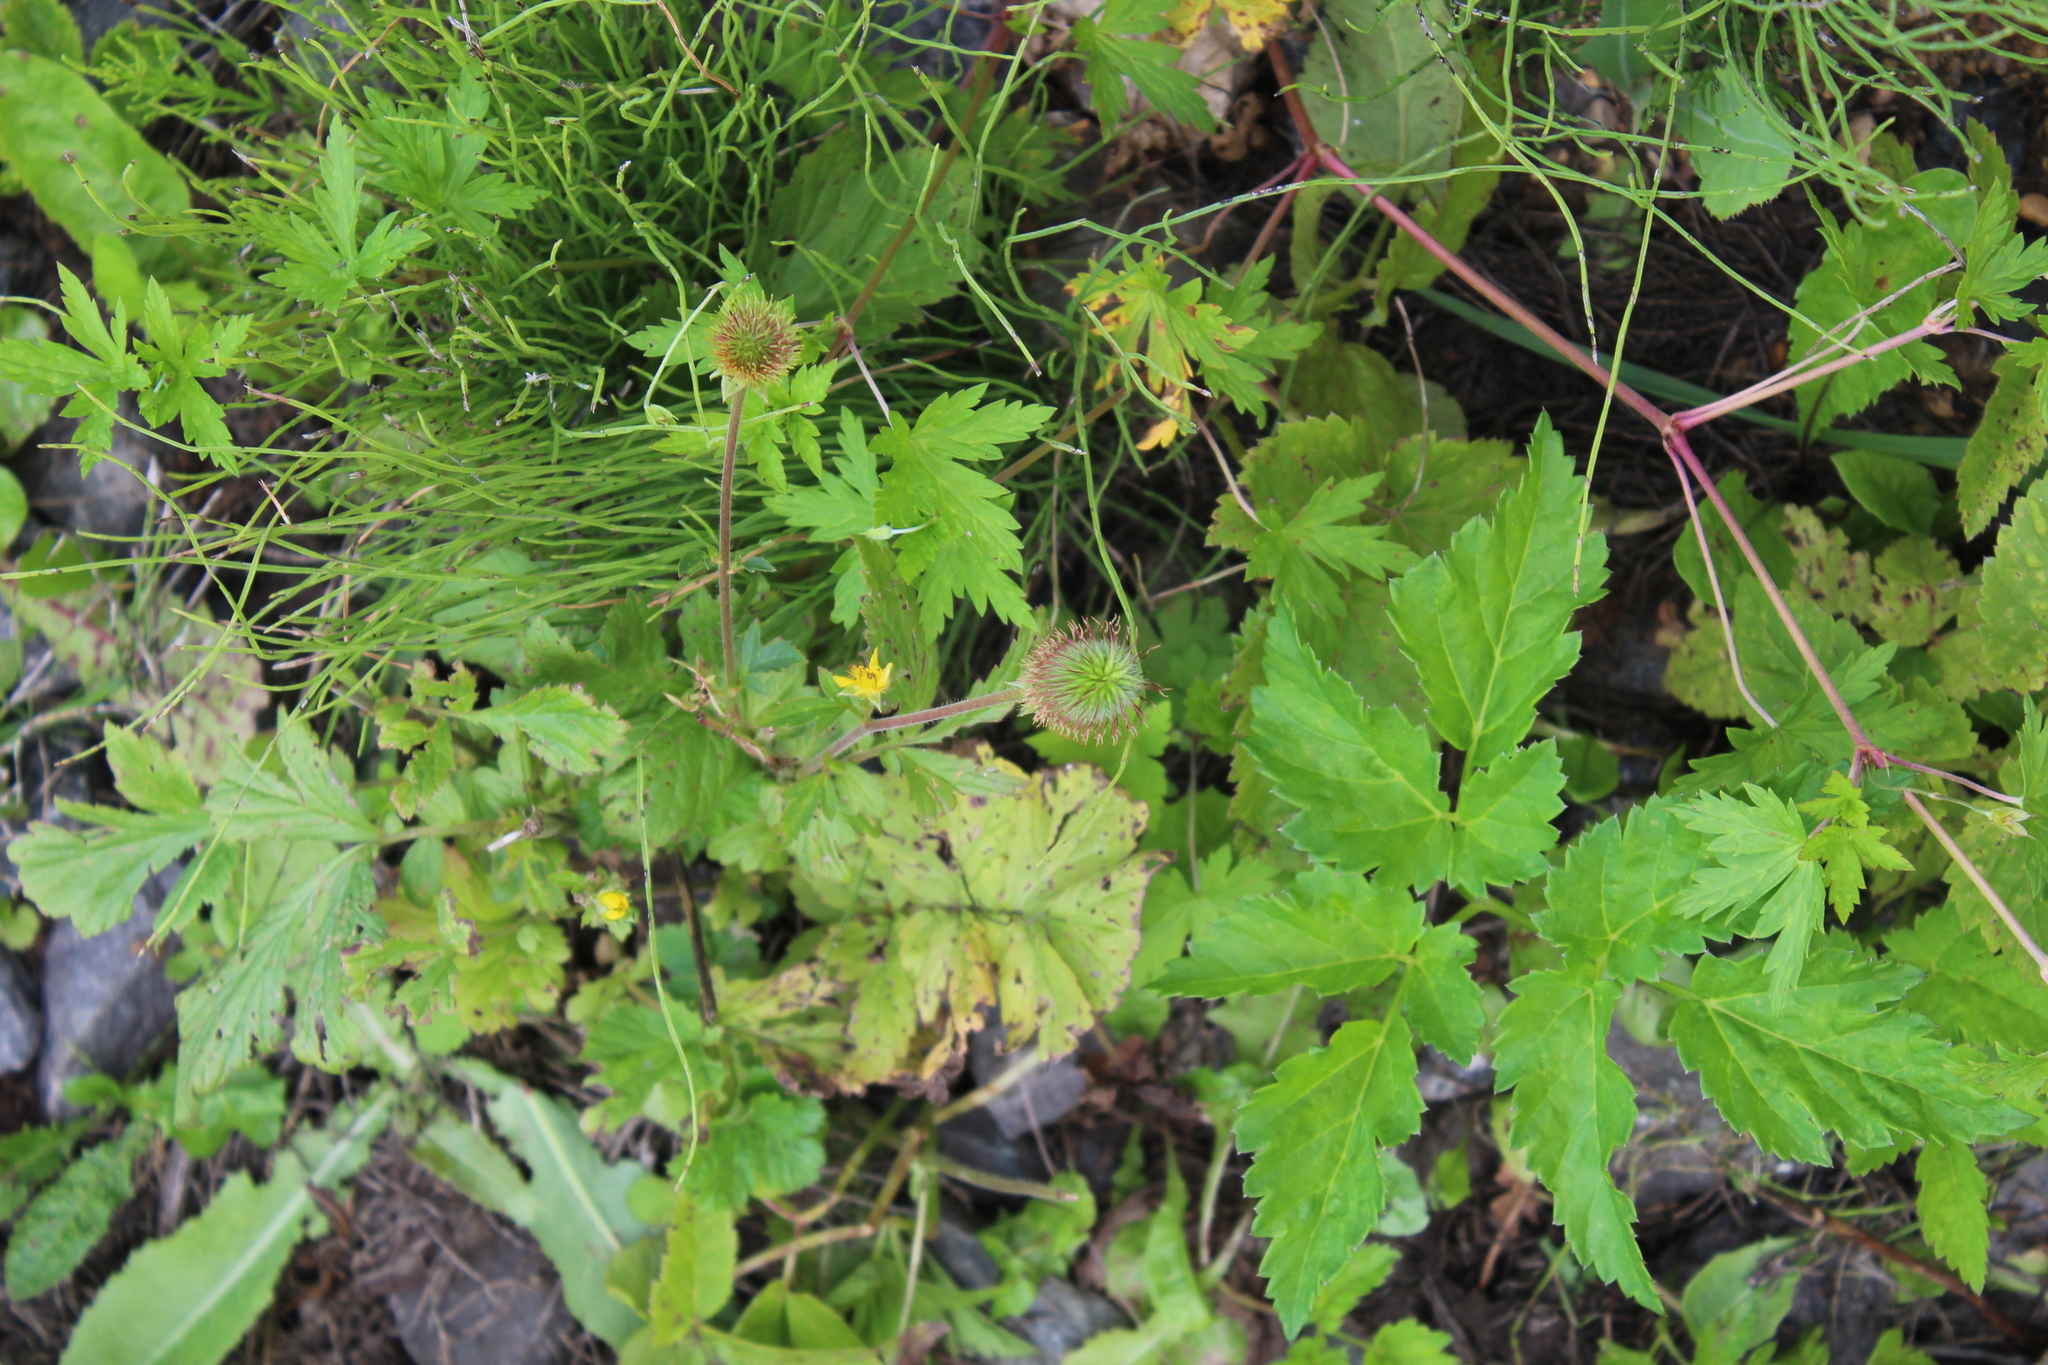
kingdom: Plantae
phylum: Tracheophyta
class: Magnoliopsida
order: Rosales
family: Rosaceae
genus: Geum
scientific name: Geum aleppicum
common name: Yellow avens
